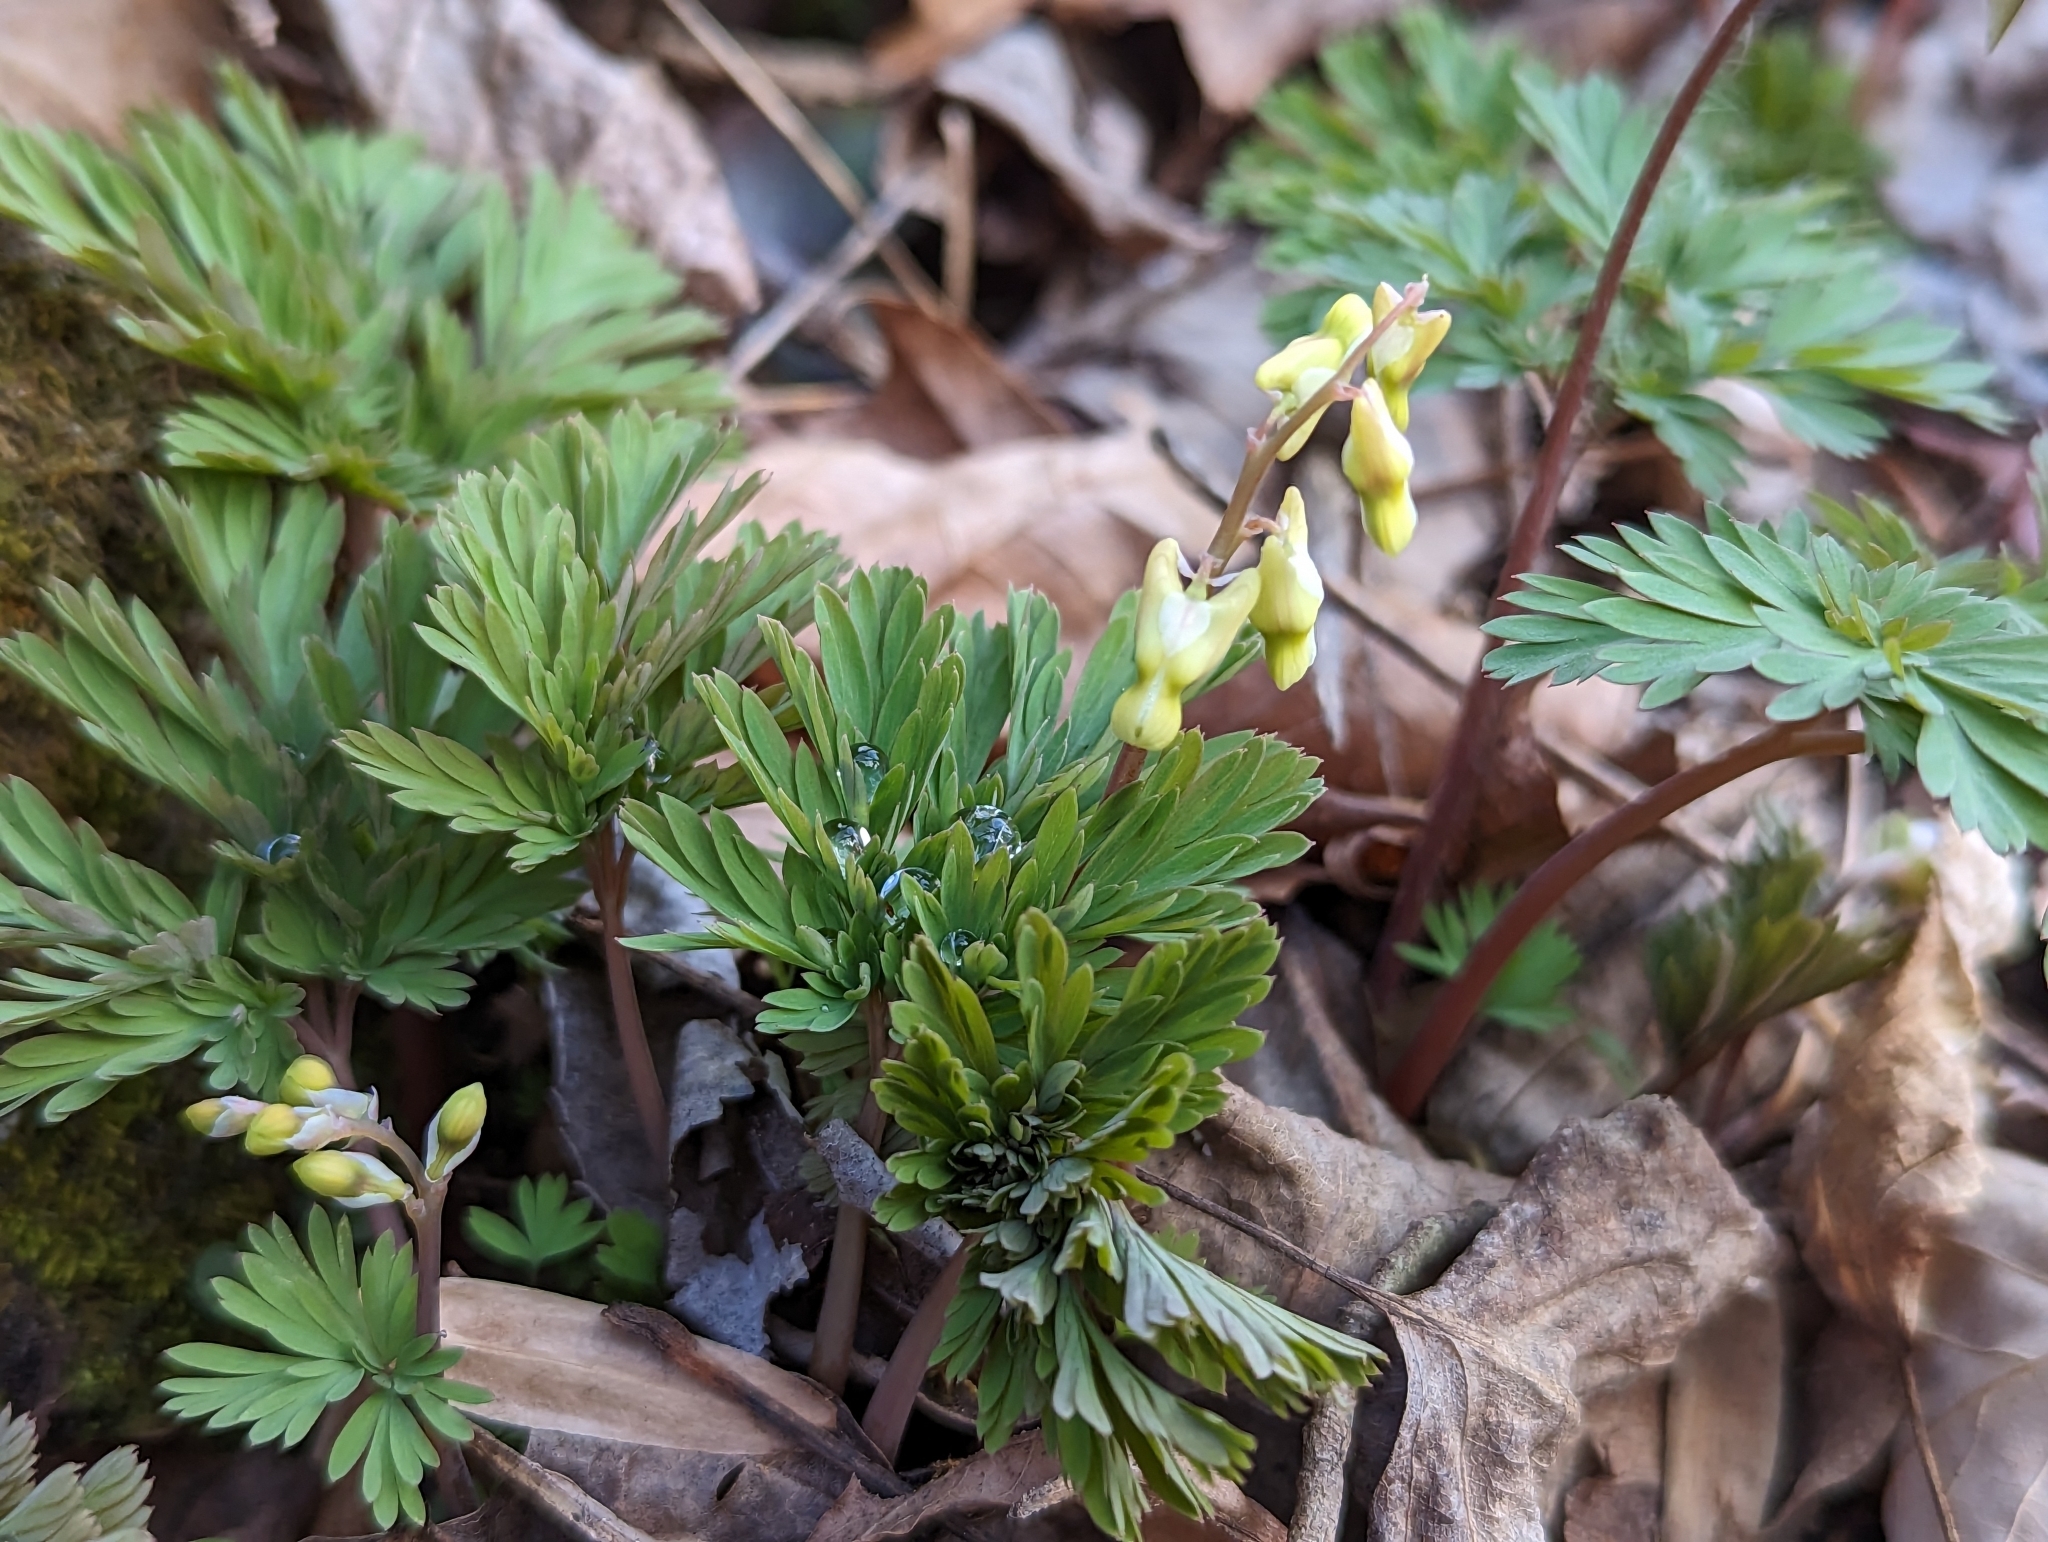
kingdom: Plantae
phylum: Tracheophyta
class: Magnoliopsida
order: Ranunculales
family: Papaveraceae
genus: Dicentra
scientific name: Dicentra cucullaria
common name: Dutchman's breeches
